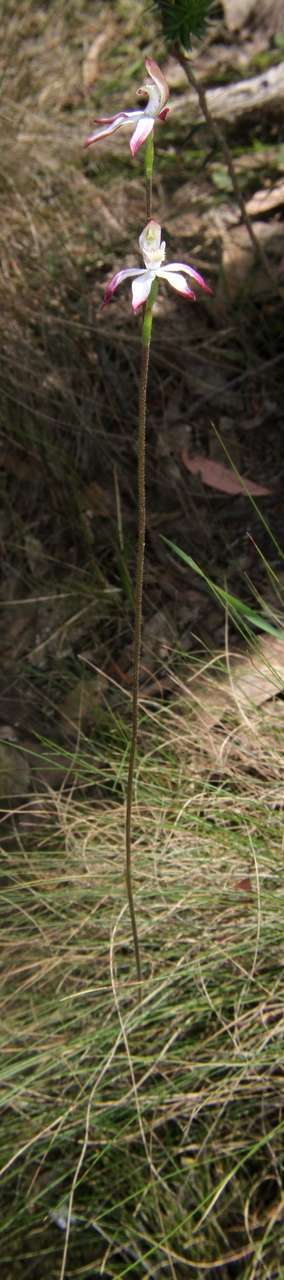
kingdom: Plantae
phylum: Tracheophyta
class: Liliopsida
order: Asparagales
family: Orchidaceae
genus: Caladenia
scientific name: Caladenia moschata
